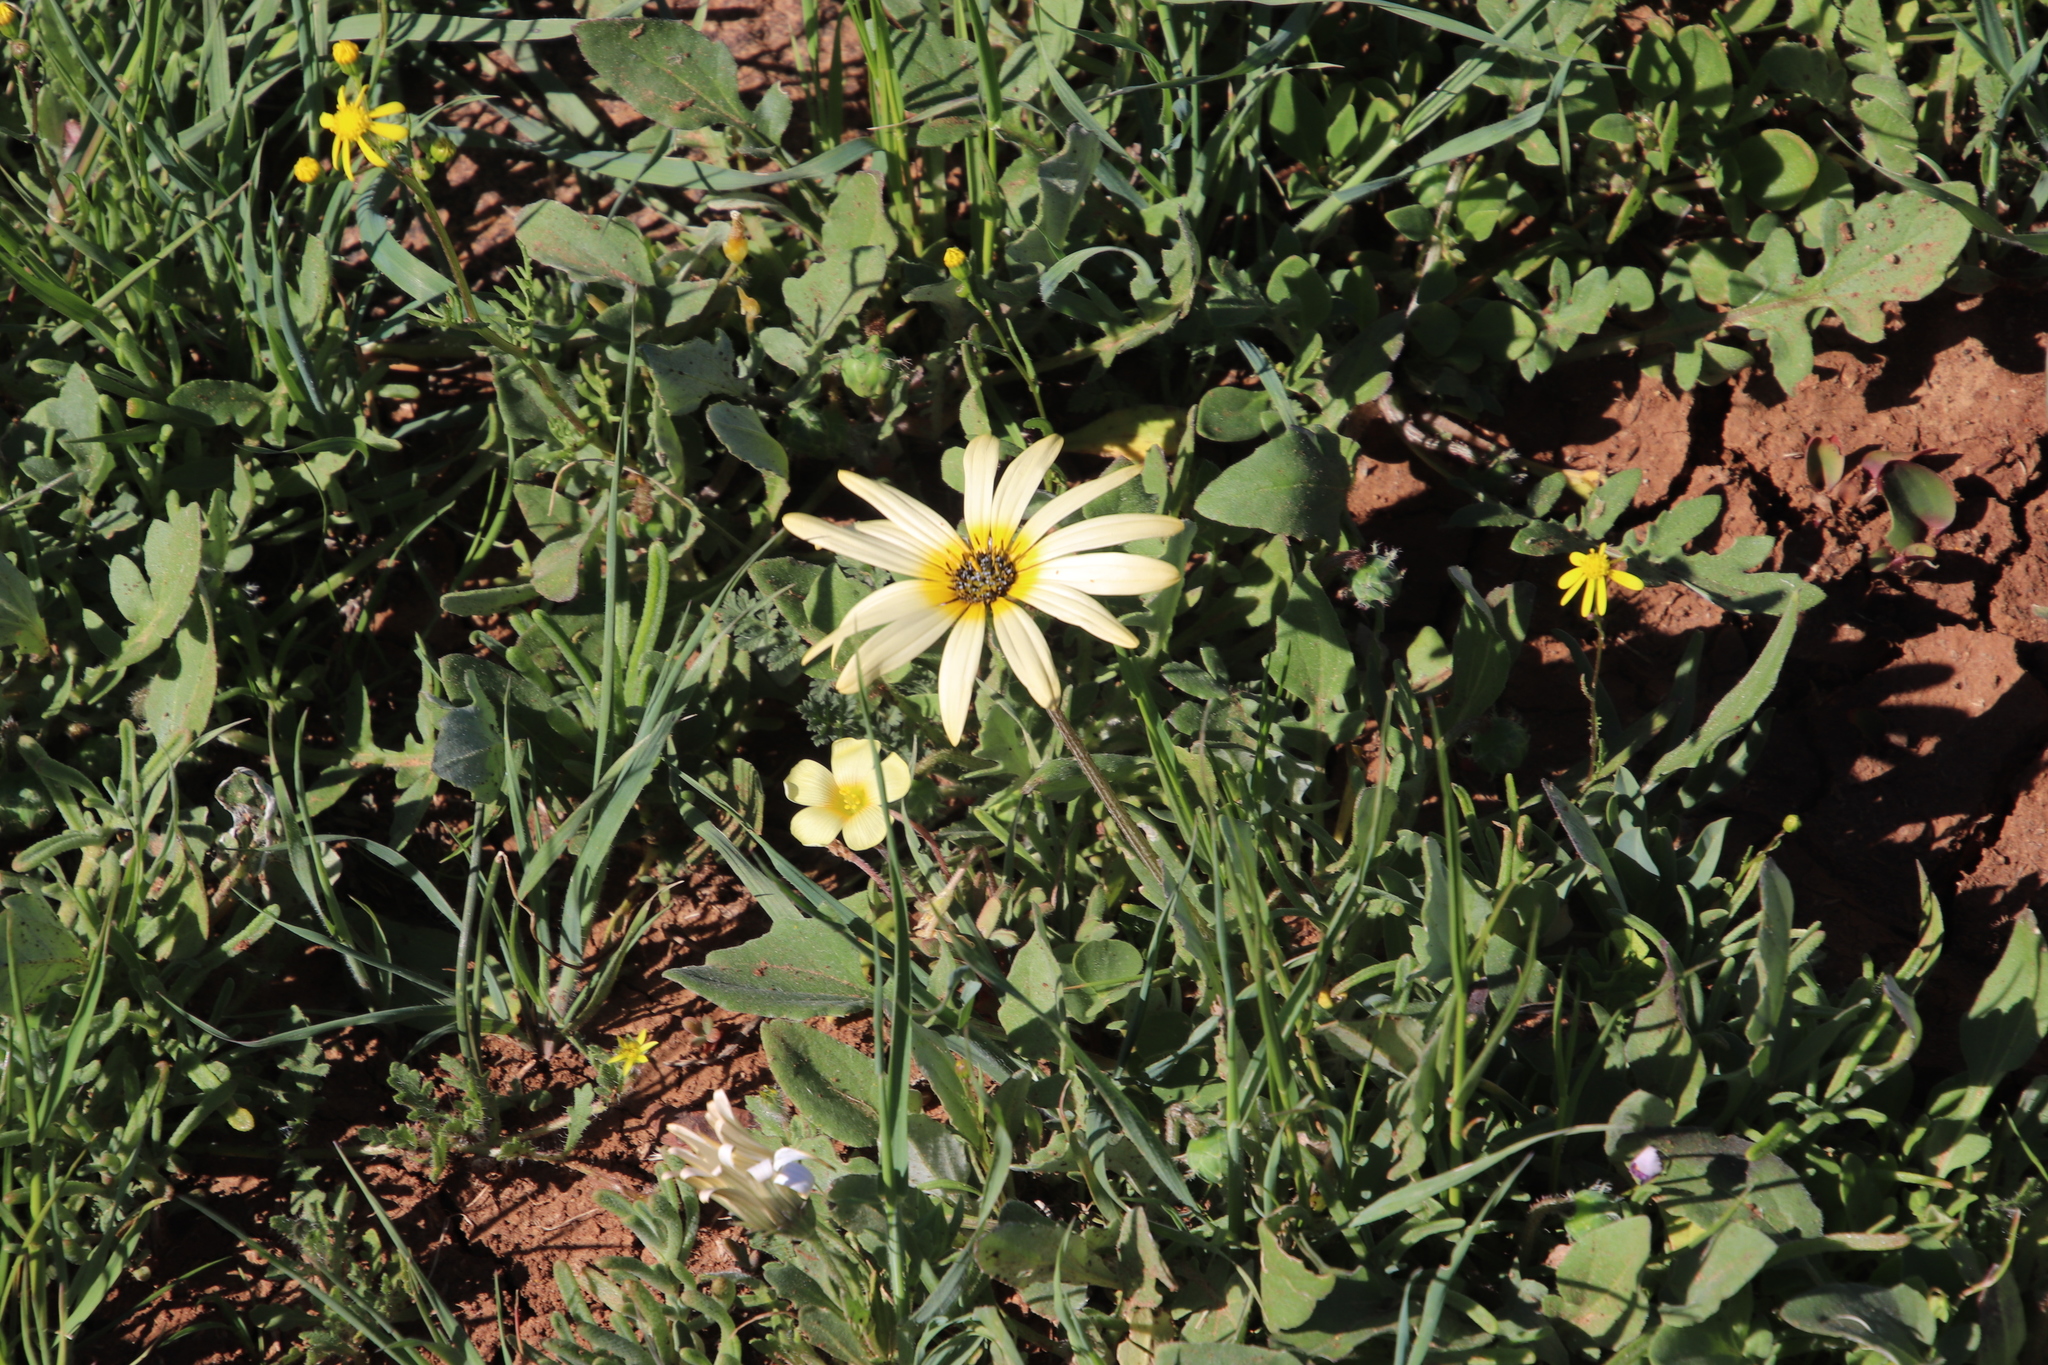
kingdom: Plantae
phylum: Tracheophyta
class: Magnoliopsida
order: Asterales
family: Asteraceae
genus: Arctotheca
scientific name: Arctotheca calendula
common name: Capeweed
